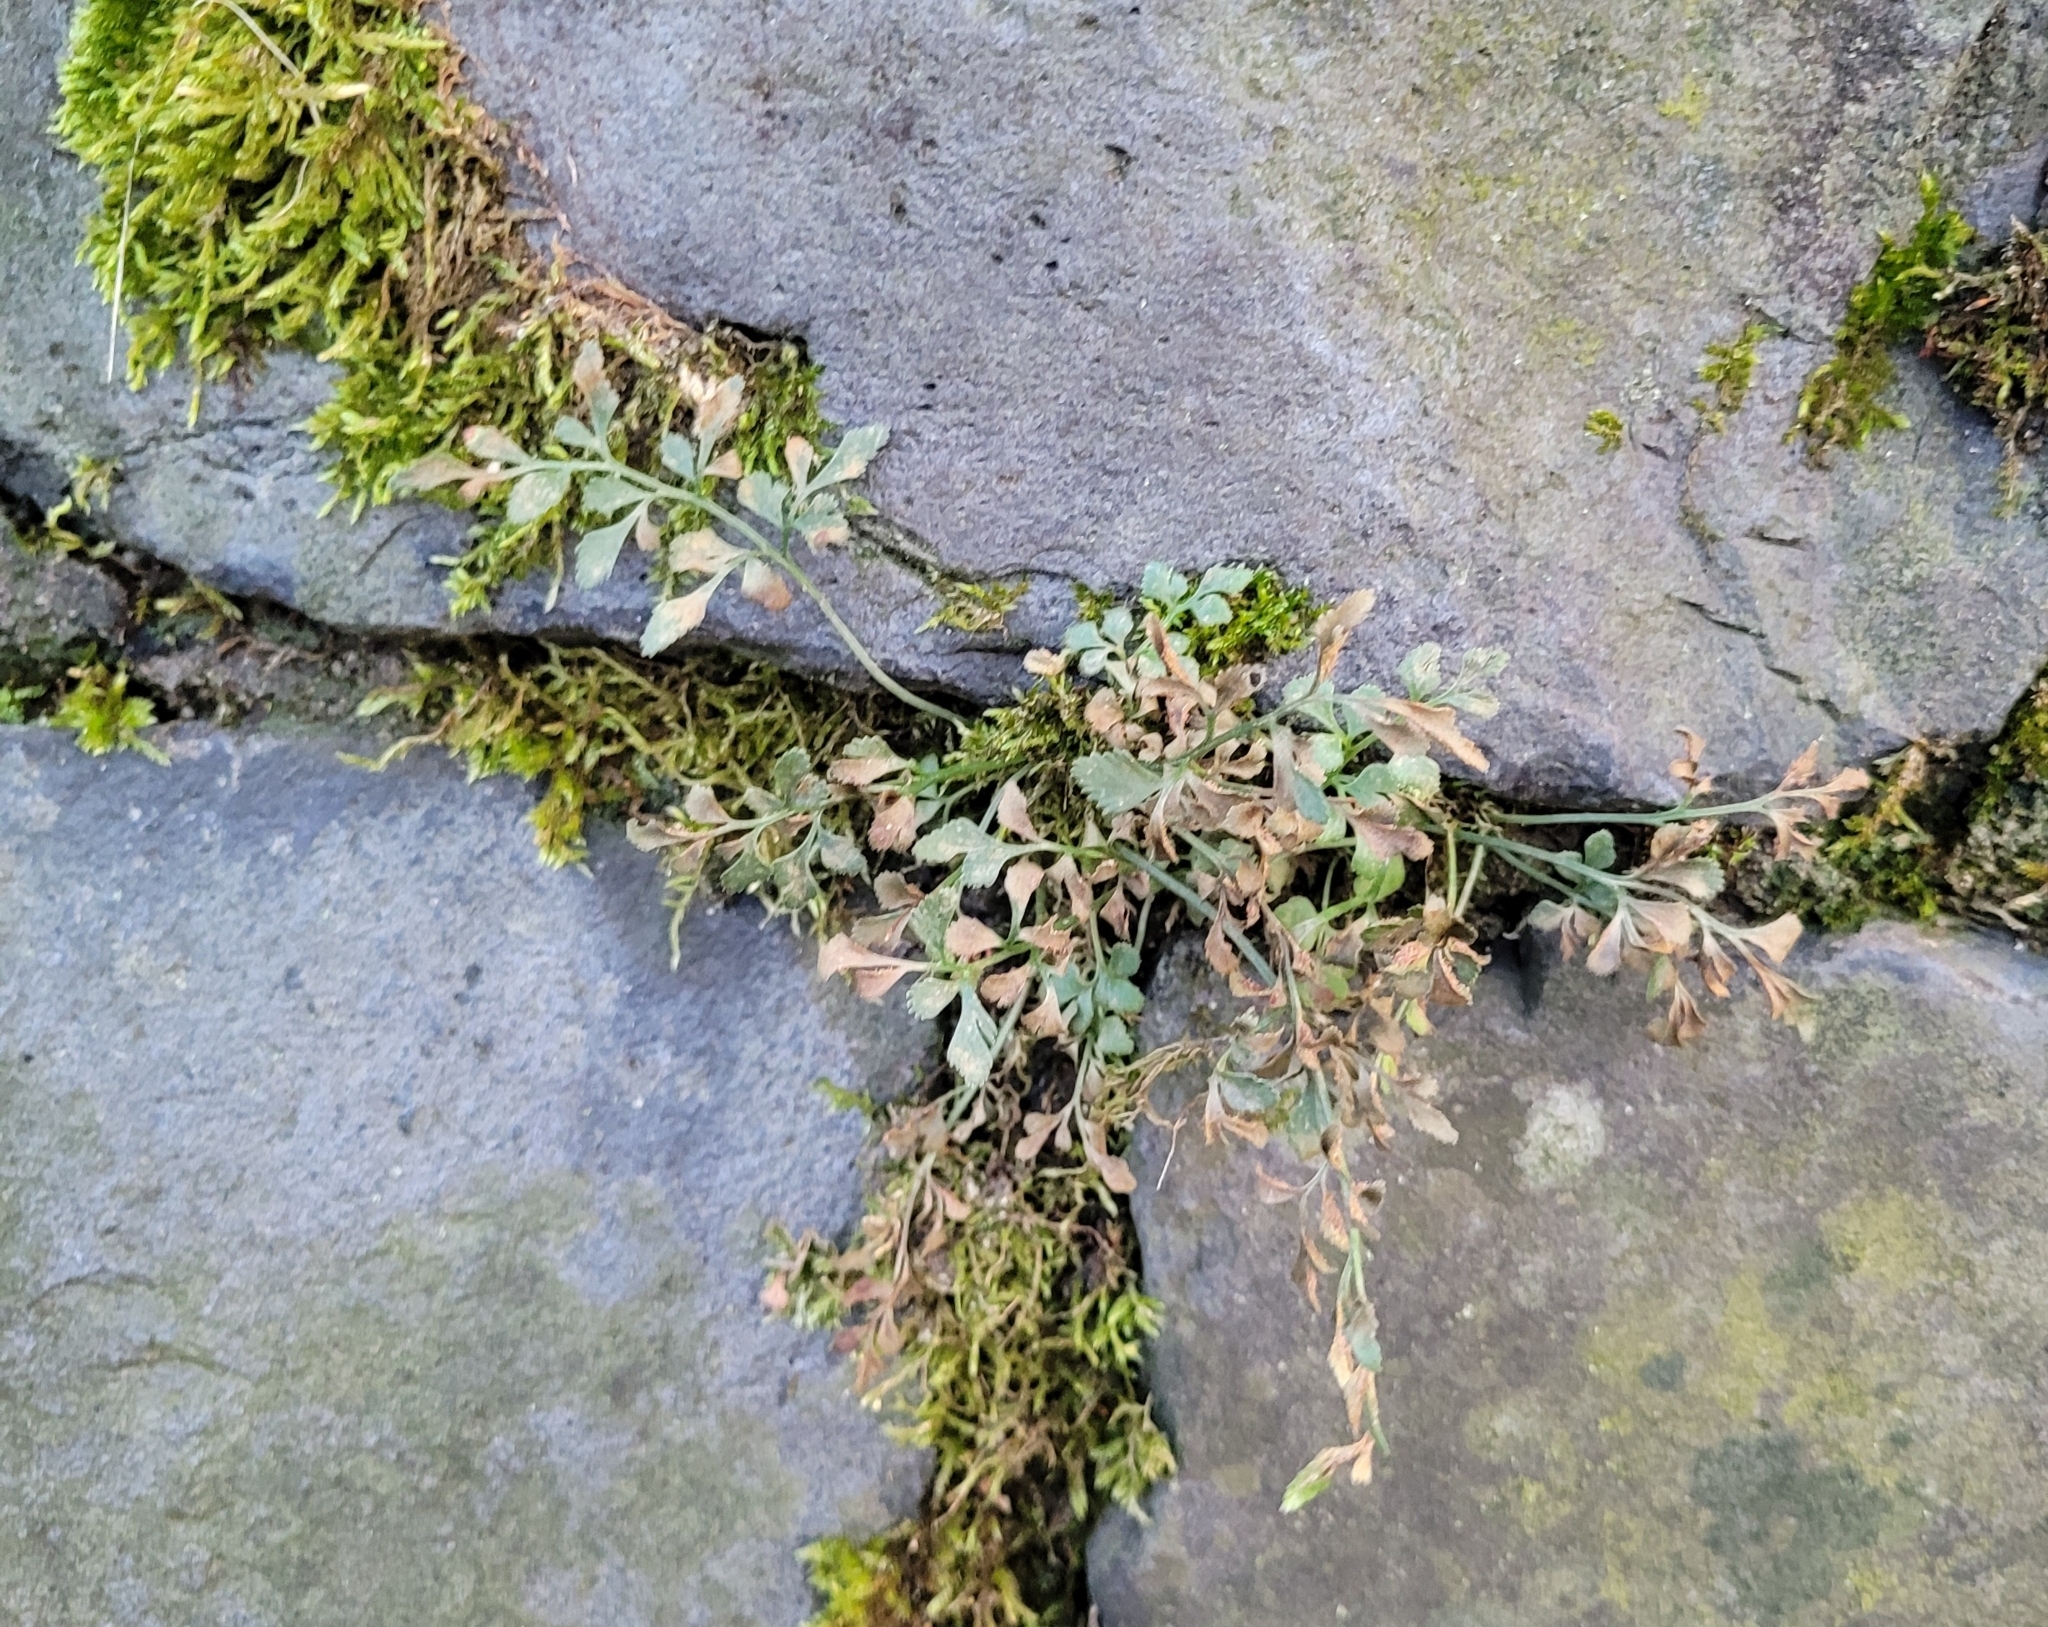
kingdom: Plantae
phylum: Tracheophyta
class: Polypodiopsida
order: Polypodiales
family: Aspleniaceae
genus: Asplenium
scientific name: Asplenium ruta-muraria
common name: Wall-rue
